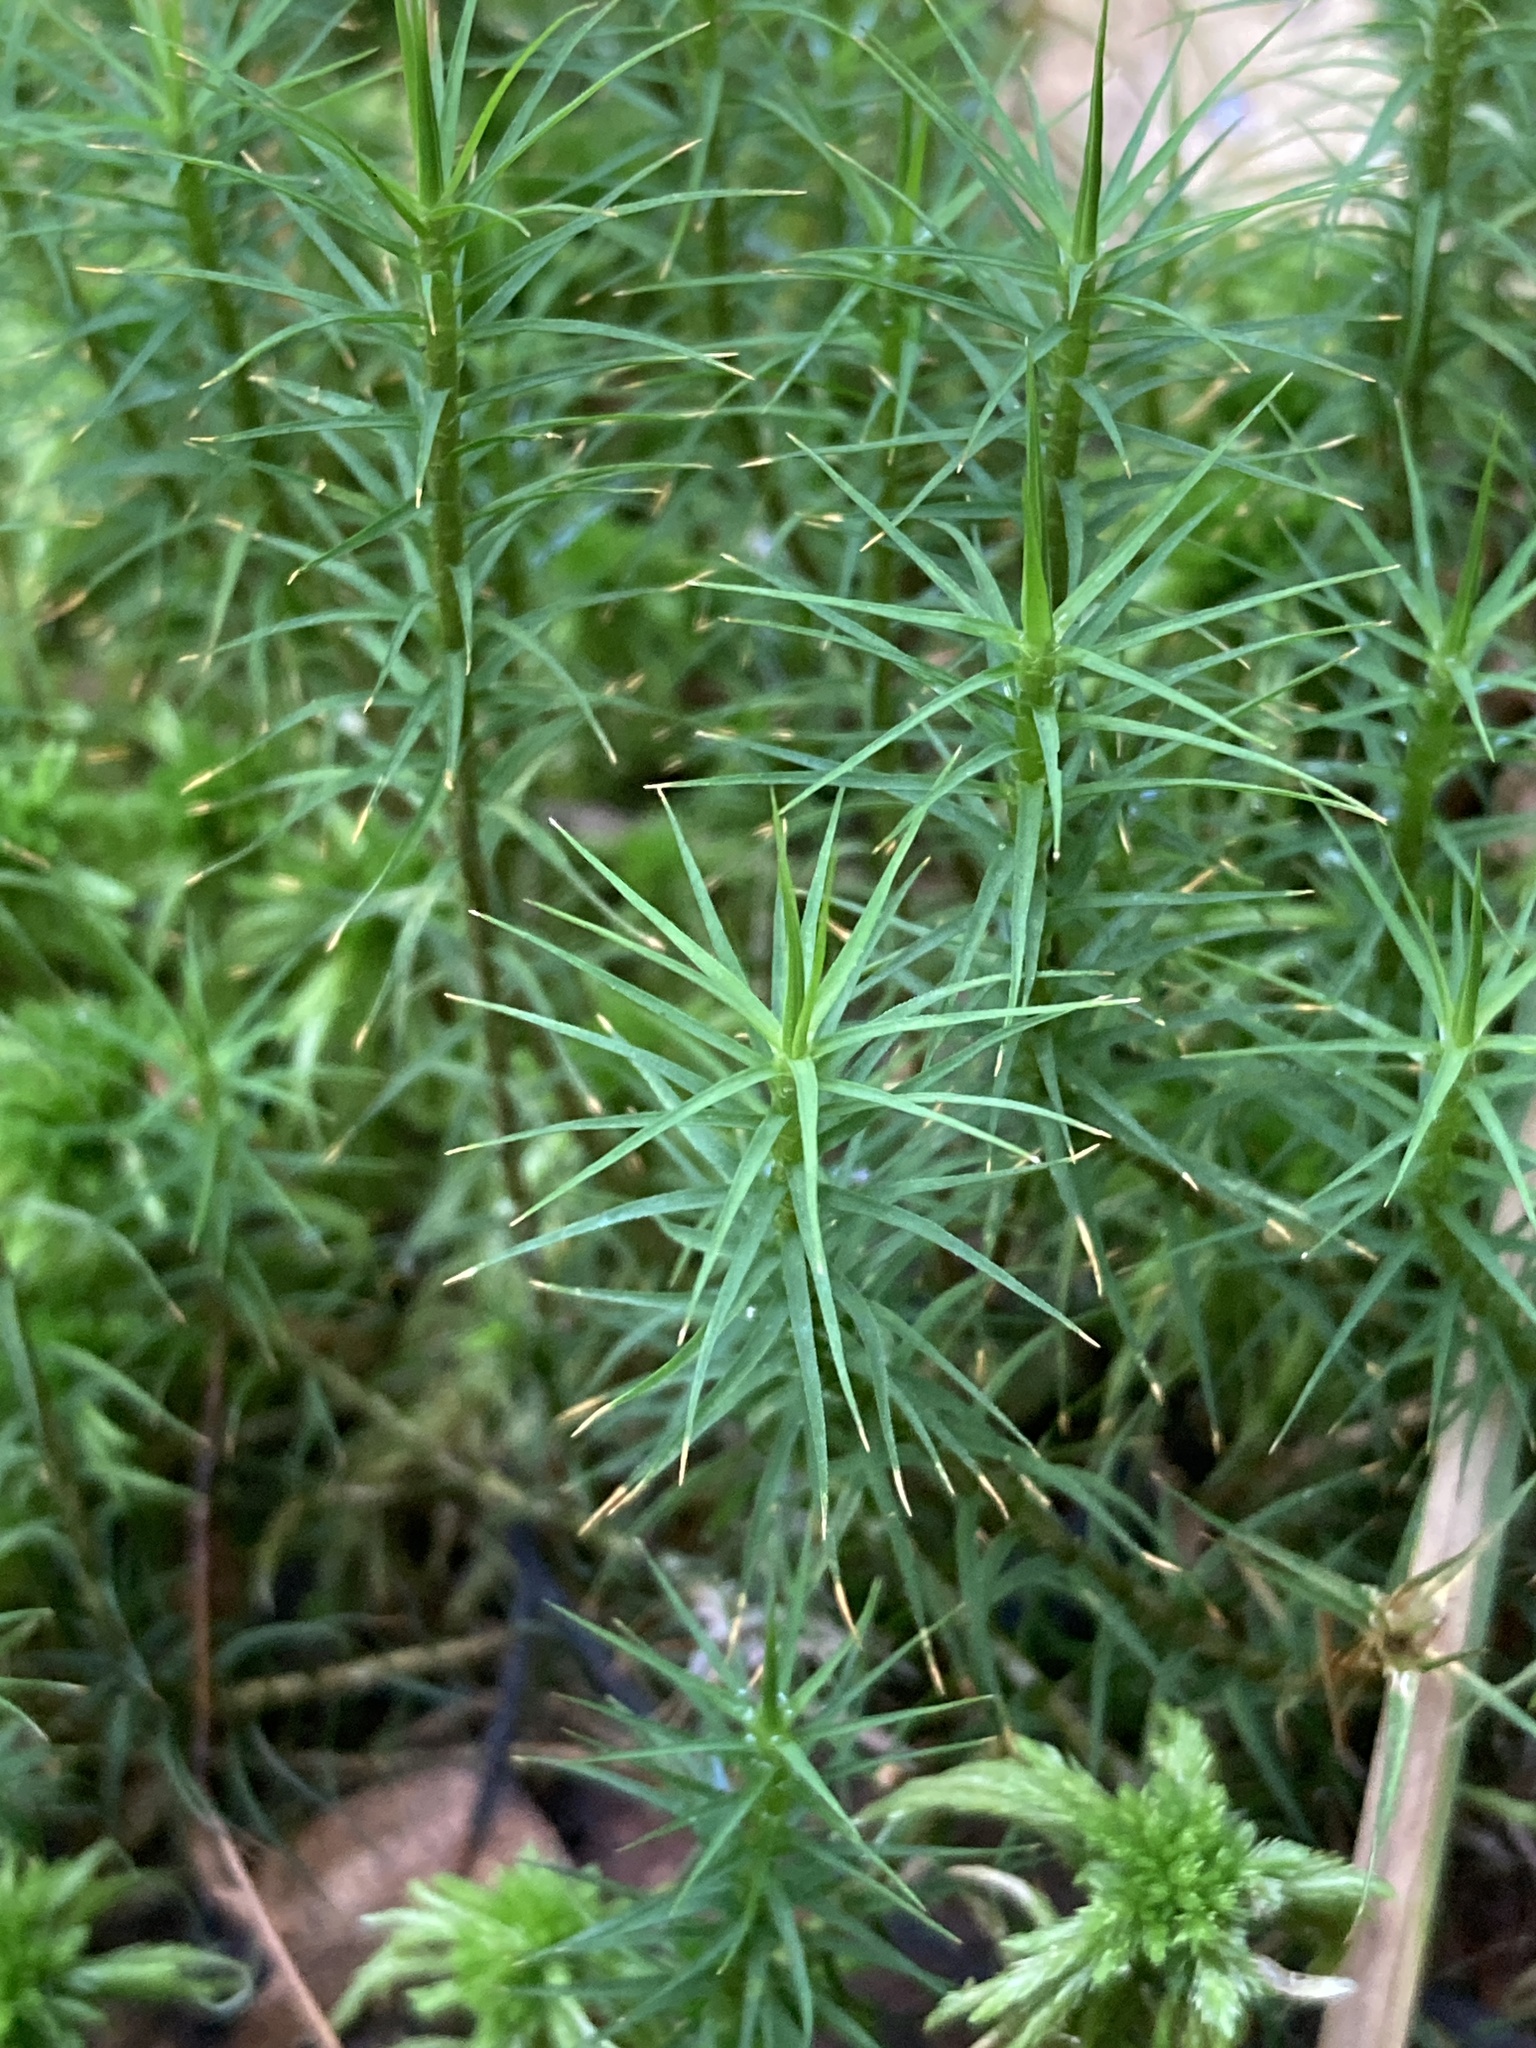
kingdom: Plantae
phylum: Bryophyta
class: Polytrichopsida
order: Polytrichales
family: Polytrichaceae
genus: Polytrichum
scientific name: Polytrichum commune
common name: Common haircap
